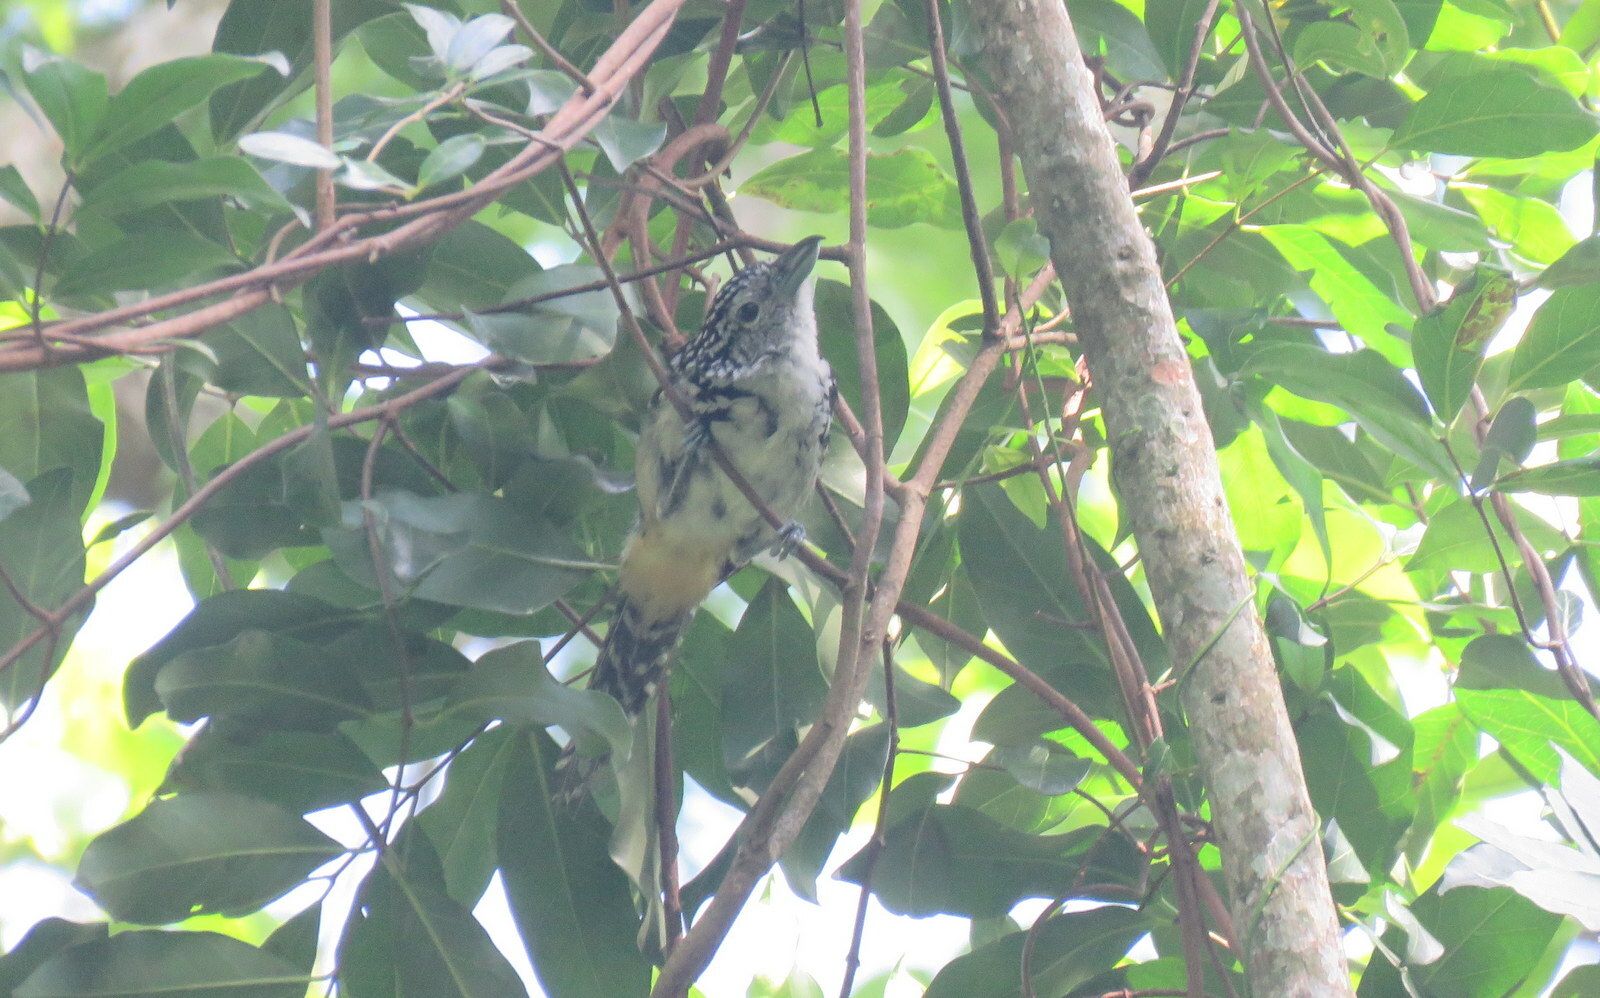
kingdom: Animalia
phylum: Chordata
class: Aves
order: Passeriformes
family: Thamnophilidae
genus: Hypoedaleus
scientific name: Hypoedaleus guttatus
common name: Spot-backed antshrike
